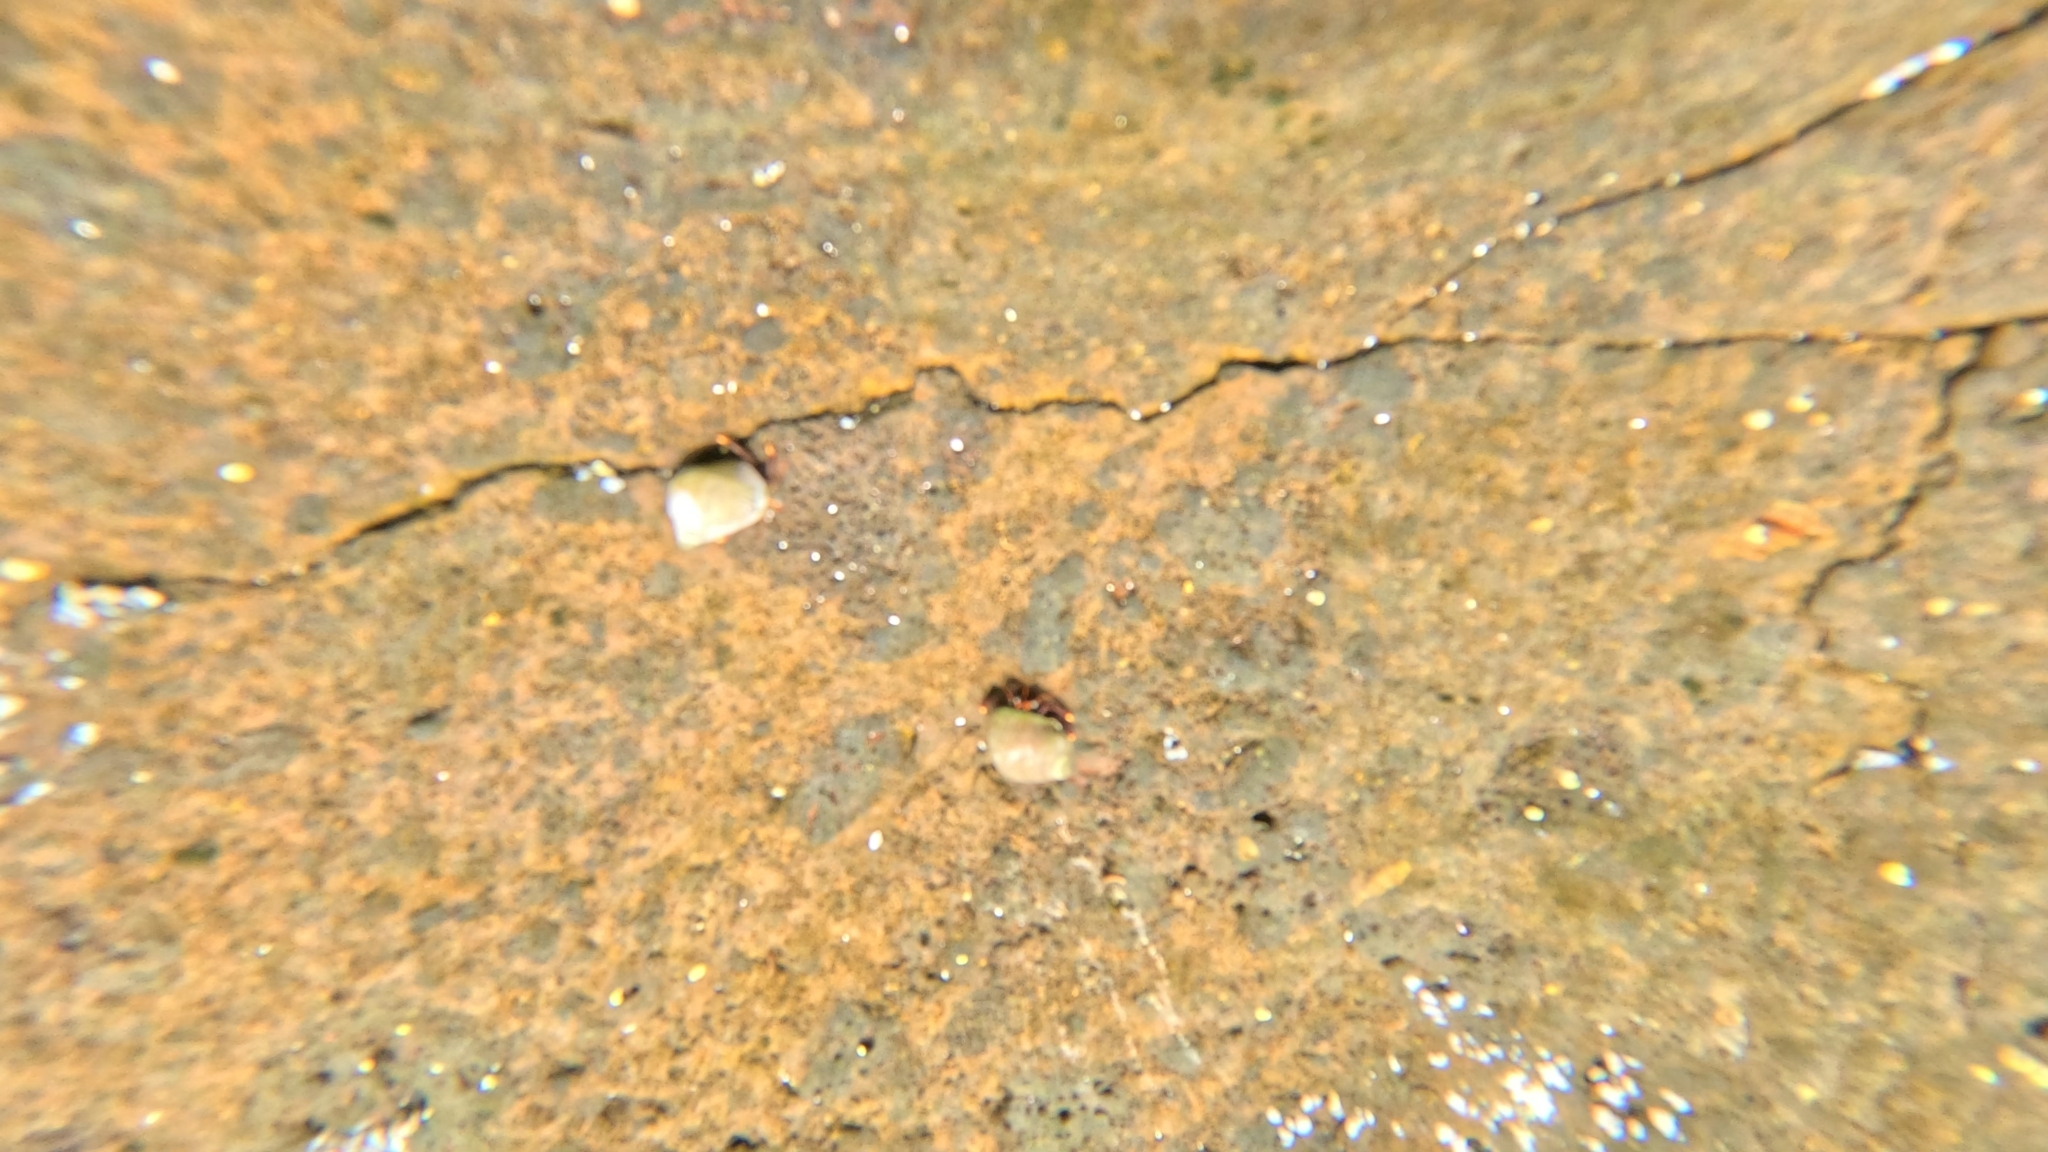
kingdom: Animalia
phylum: Arthropoda
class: Malacostraca
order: Decapoda
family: Diogenidae
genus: Clibanarius
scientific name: Clibanarius aequabilis
